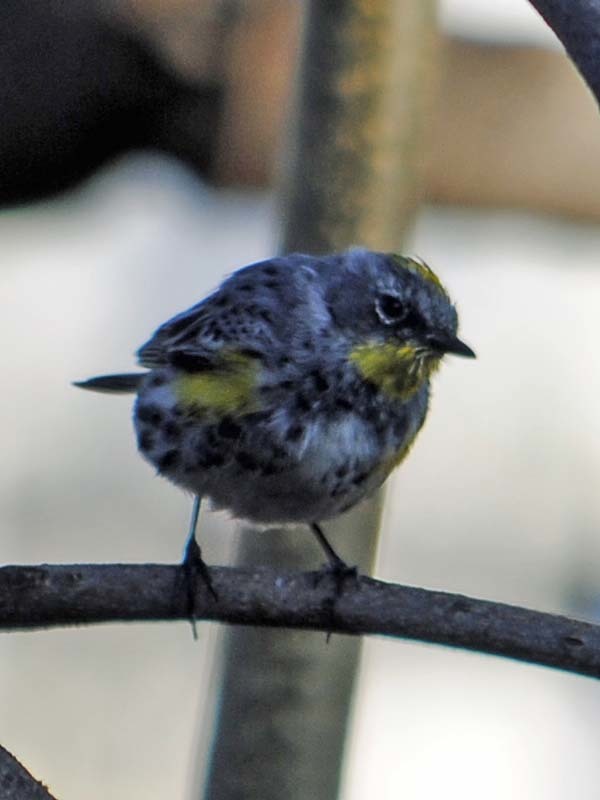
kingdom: Animalia
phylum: Chordata
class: Aves
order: Passeriformes
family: Parulidae
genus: Setophaga
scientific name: Setophaga auduboni
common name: Audubon's warbler
